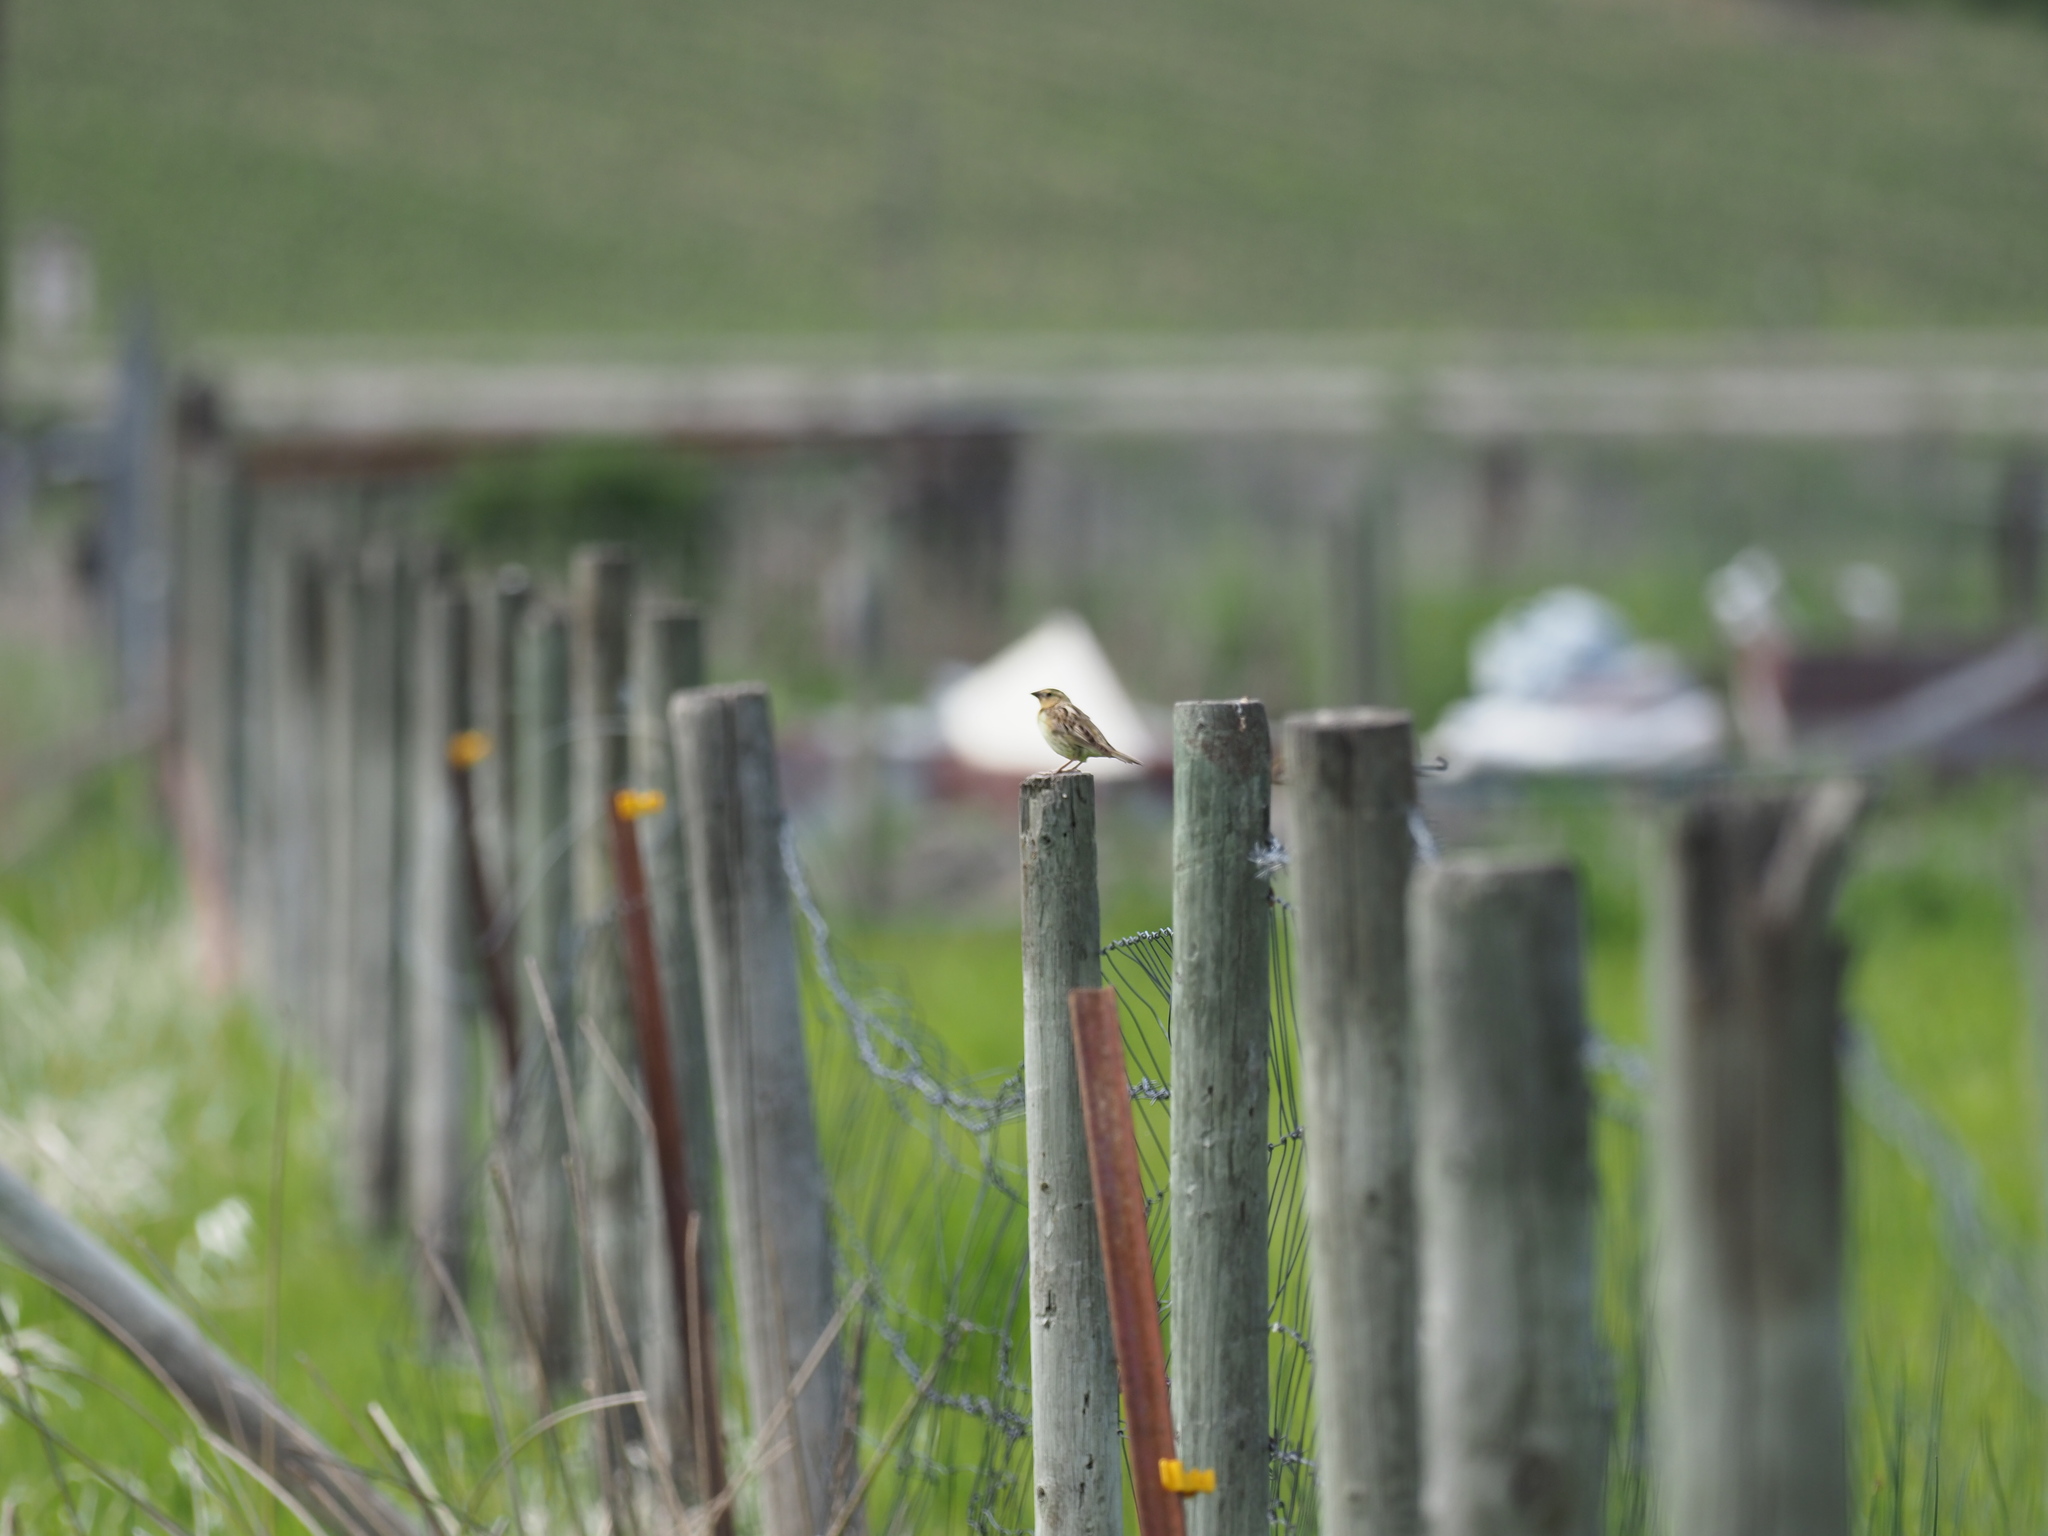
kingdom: Animalia
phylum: Chordata
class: Aves
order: Passeriformes
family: Icteridae
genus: Dolichonyx
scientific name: Dolichonyx oryzivorus
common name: Bobolink
